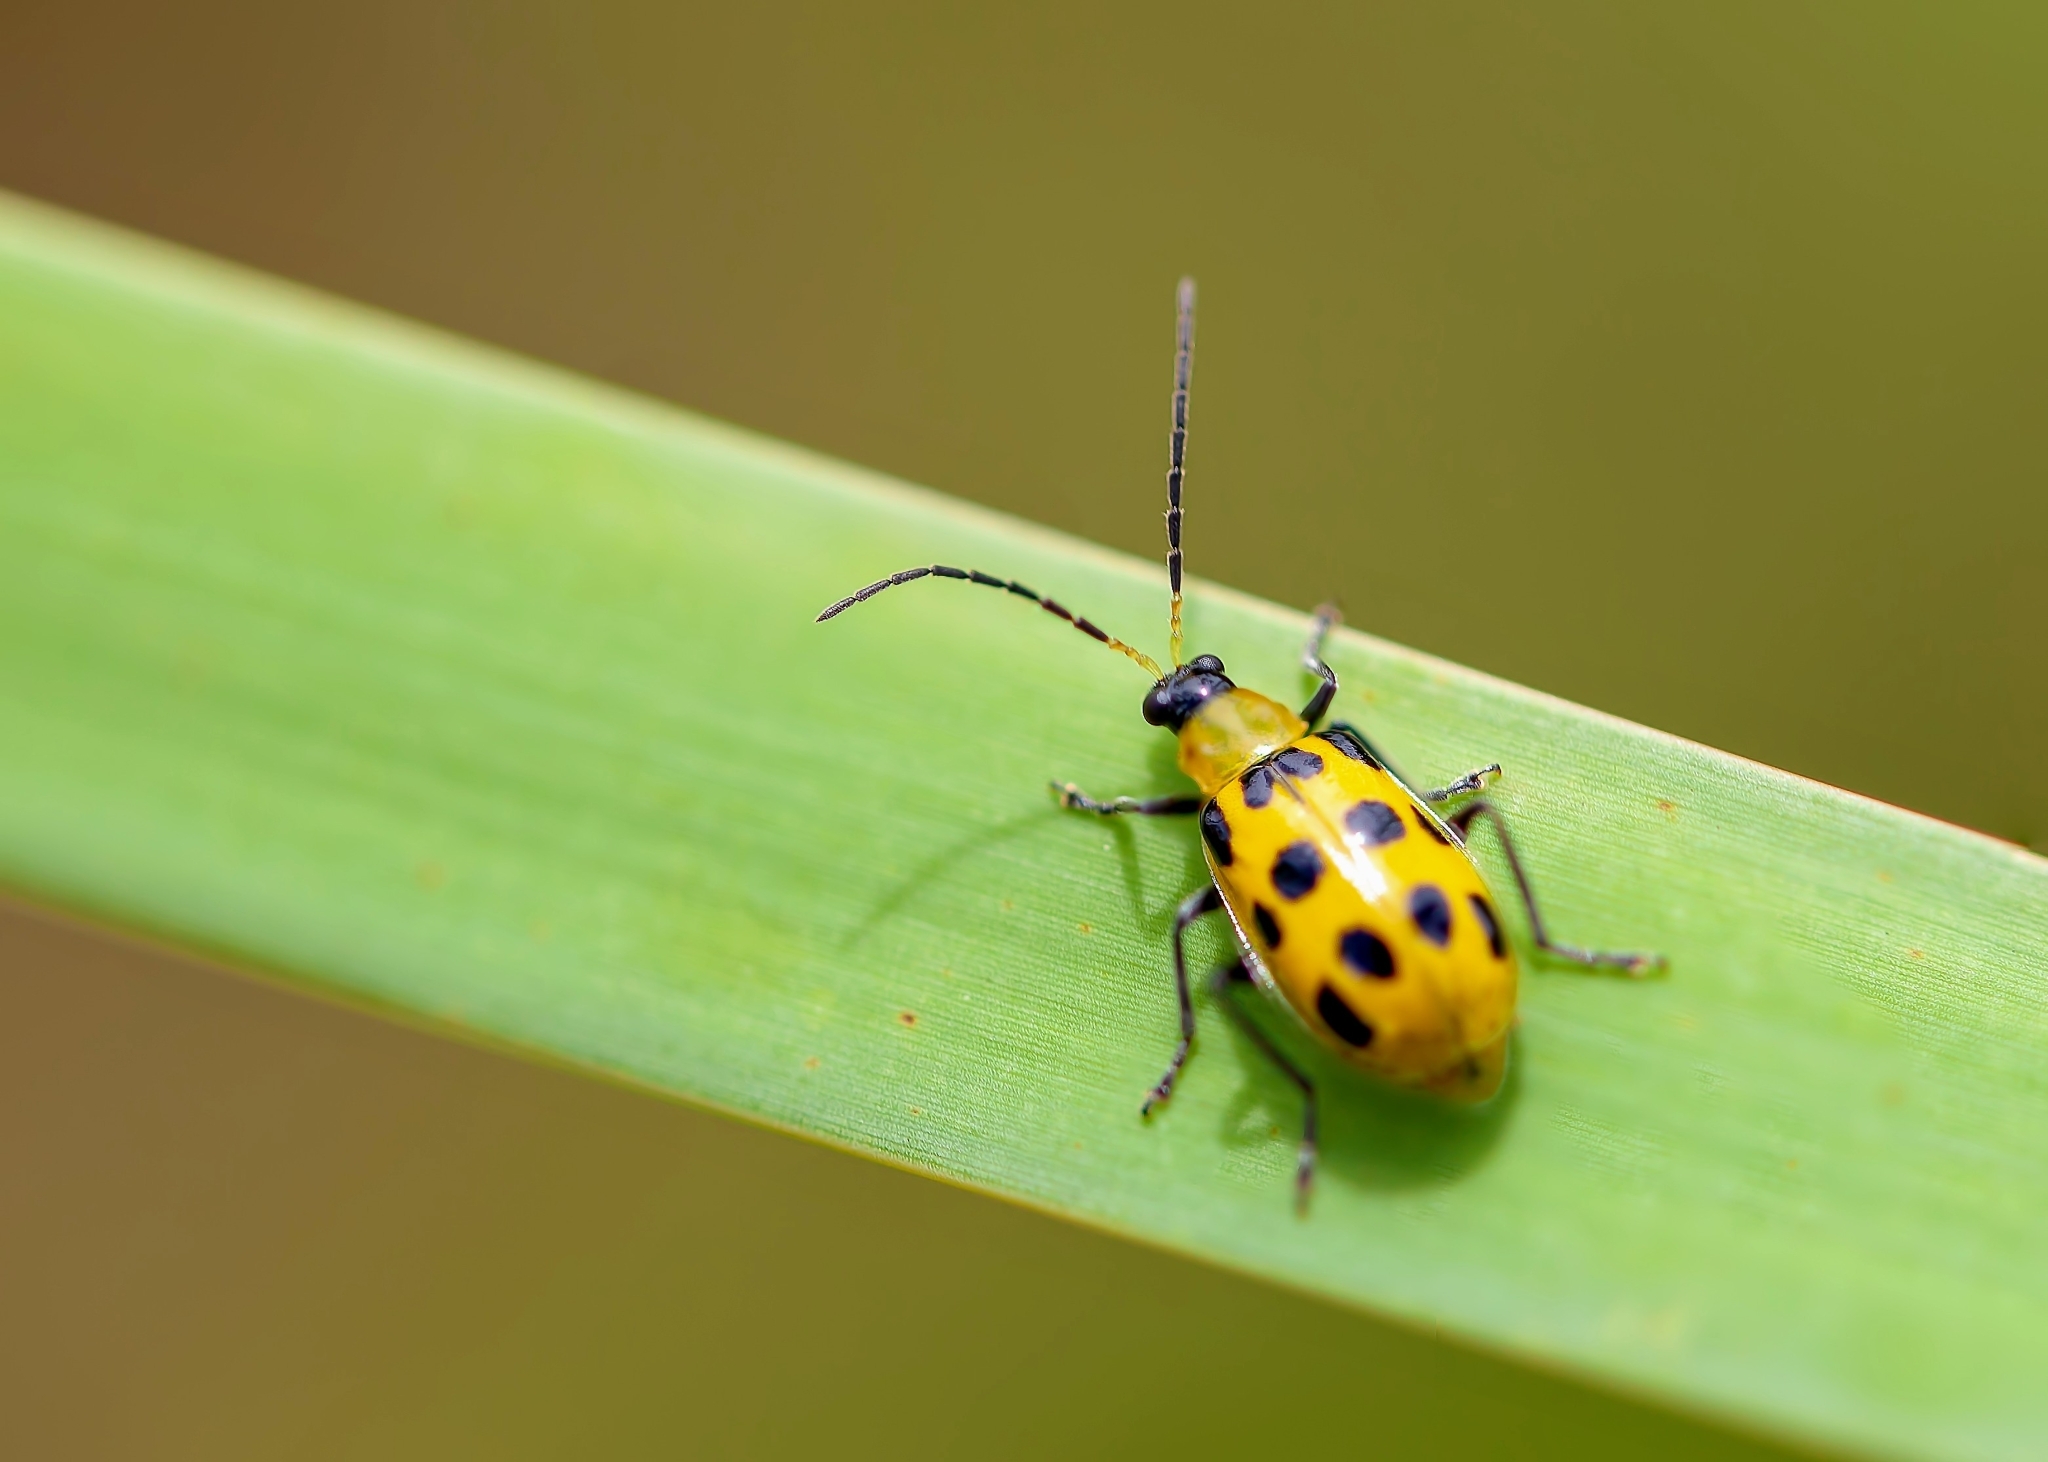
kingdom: Animalia
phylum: Arthropoda
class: Insecta
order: Coleoptera
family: Chrysomelidae
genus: Diabrotica
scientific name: Diabrotica undecimpunctata
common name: Spotted cucumber beetle
